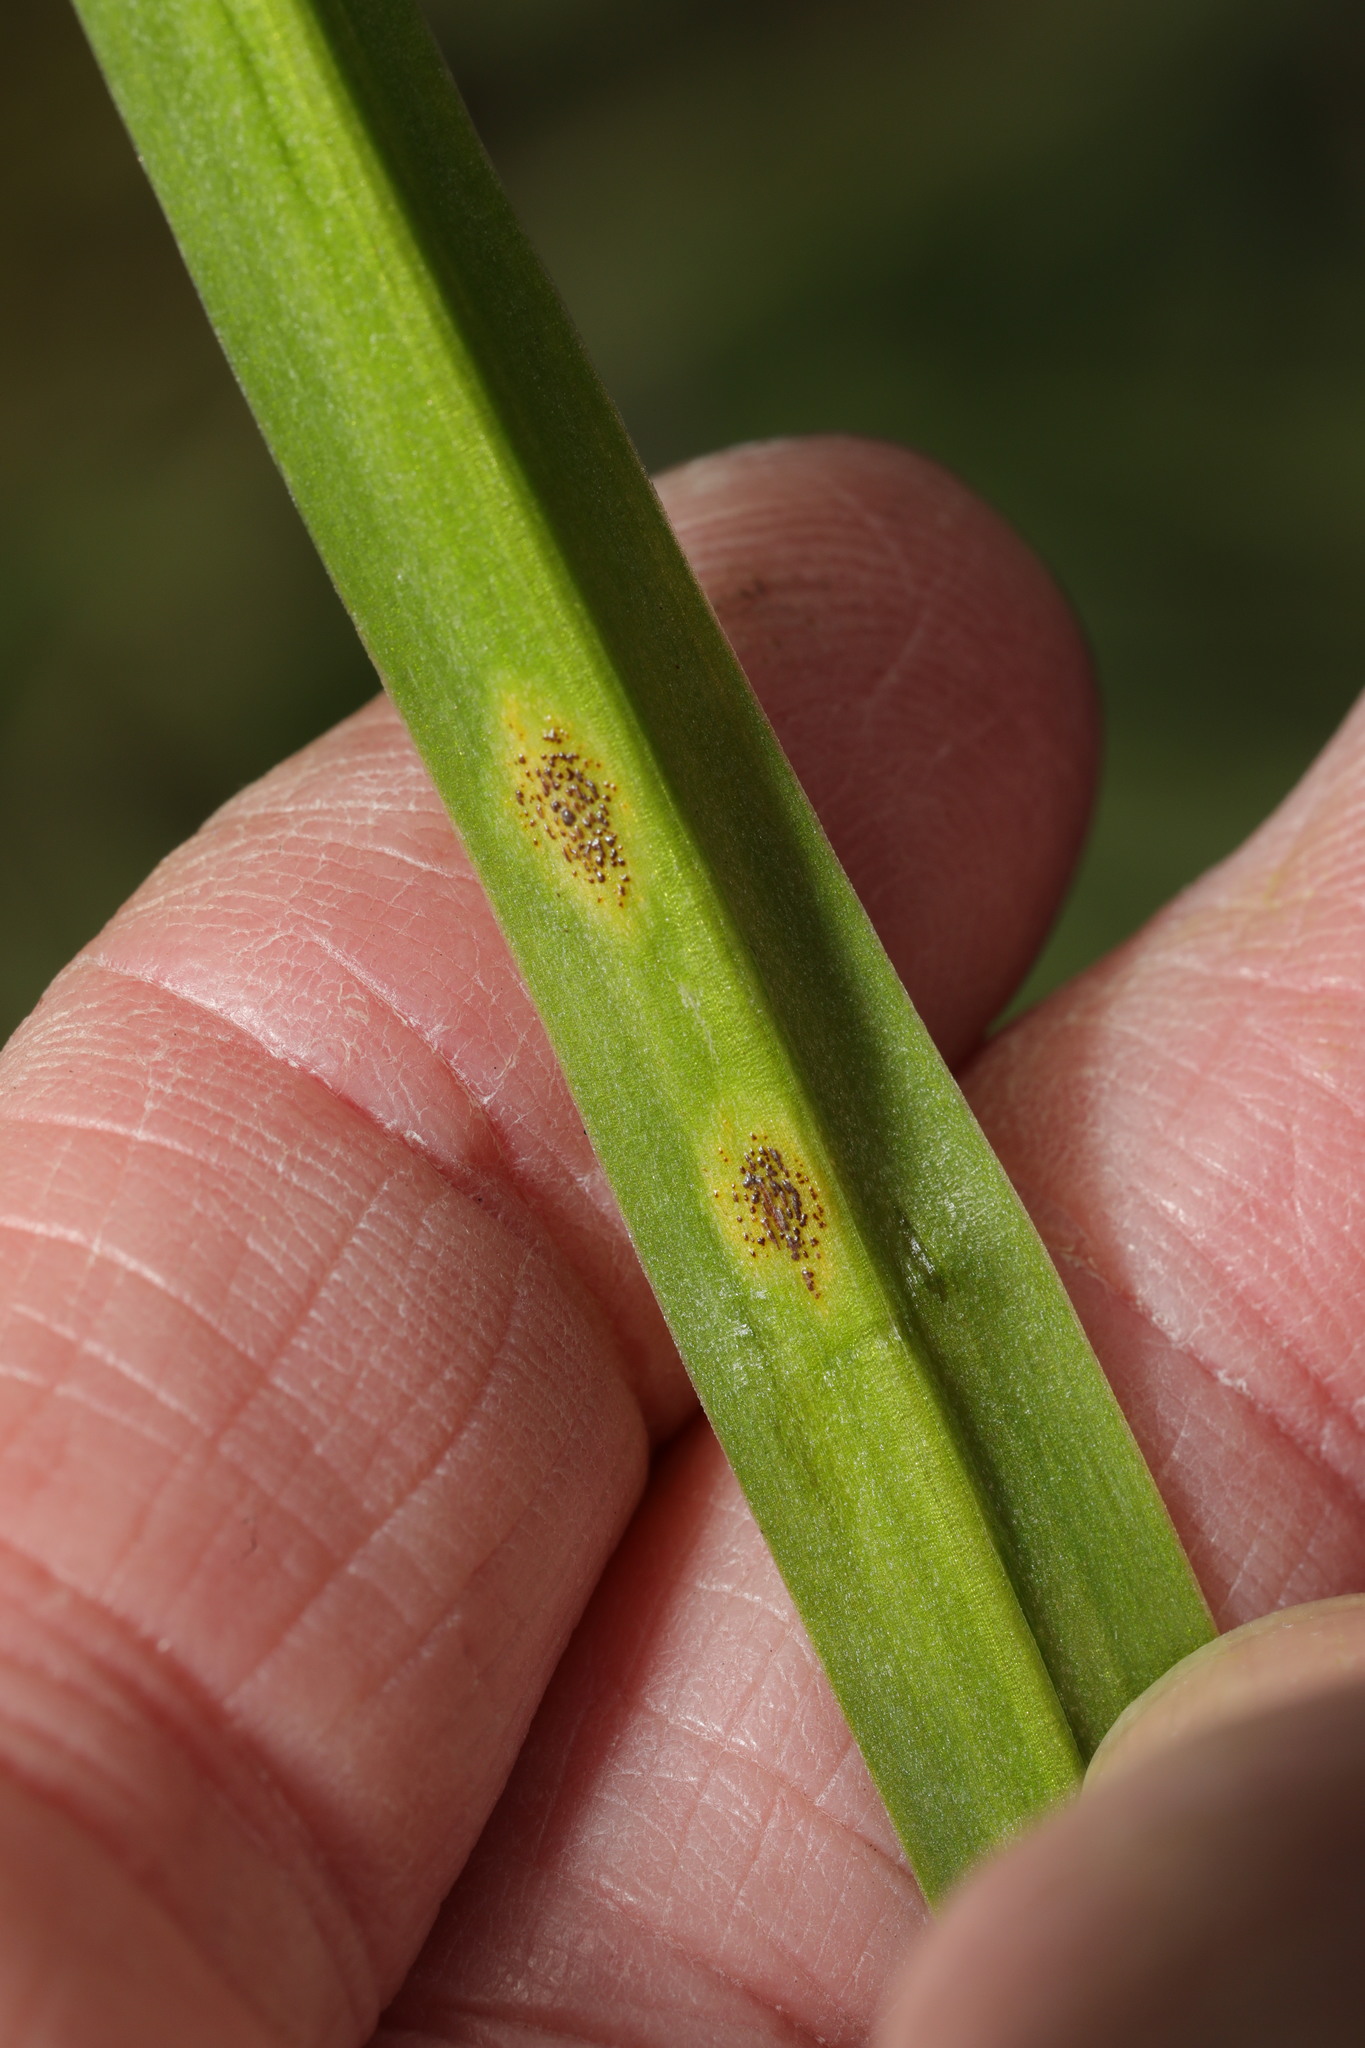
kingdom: Fungi
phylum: Basidiomycota
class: Pucciniomycetes
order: Pucciniales
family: Pucciniaceae
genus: Uromyces
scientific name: Uromyces hyacinthi
